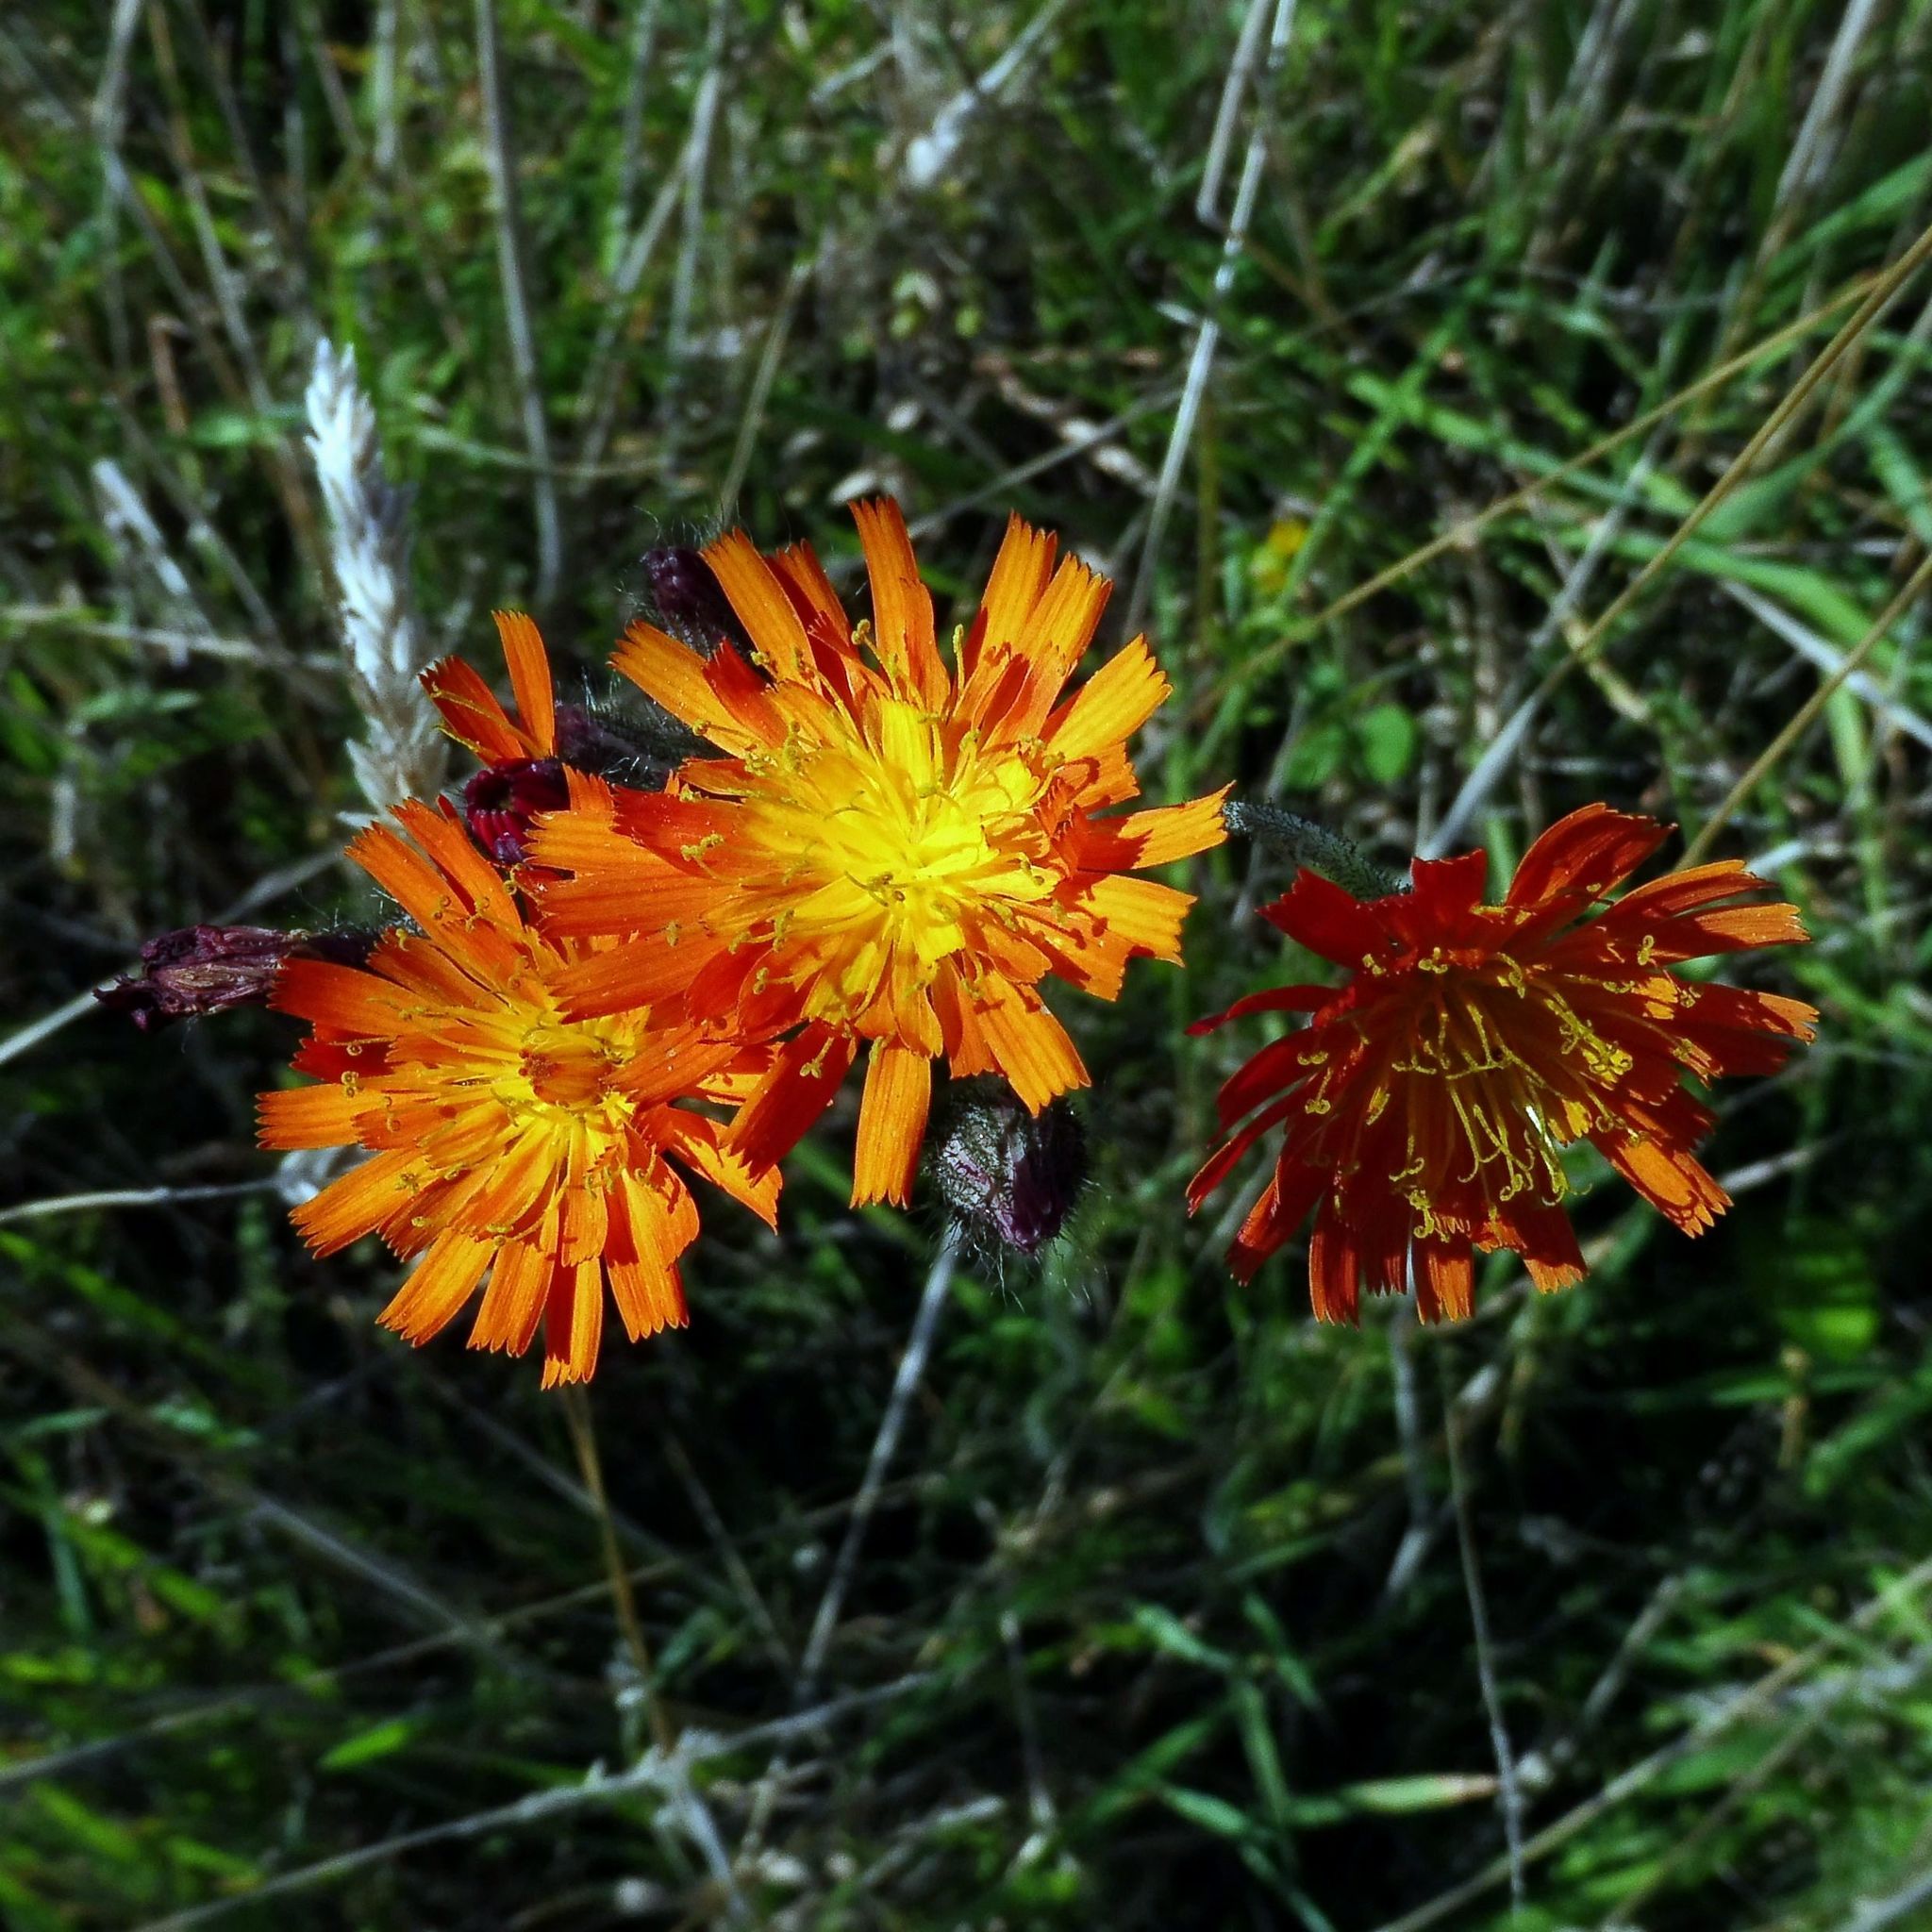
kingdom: Plantae
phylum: Tracheophyta
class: Magnoliopsida
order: Asterales
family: Asteraceae
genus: Pilosella
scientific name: Pilosella aurantiaca
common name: Fox-and-cubs
